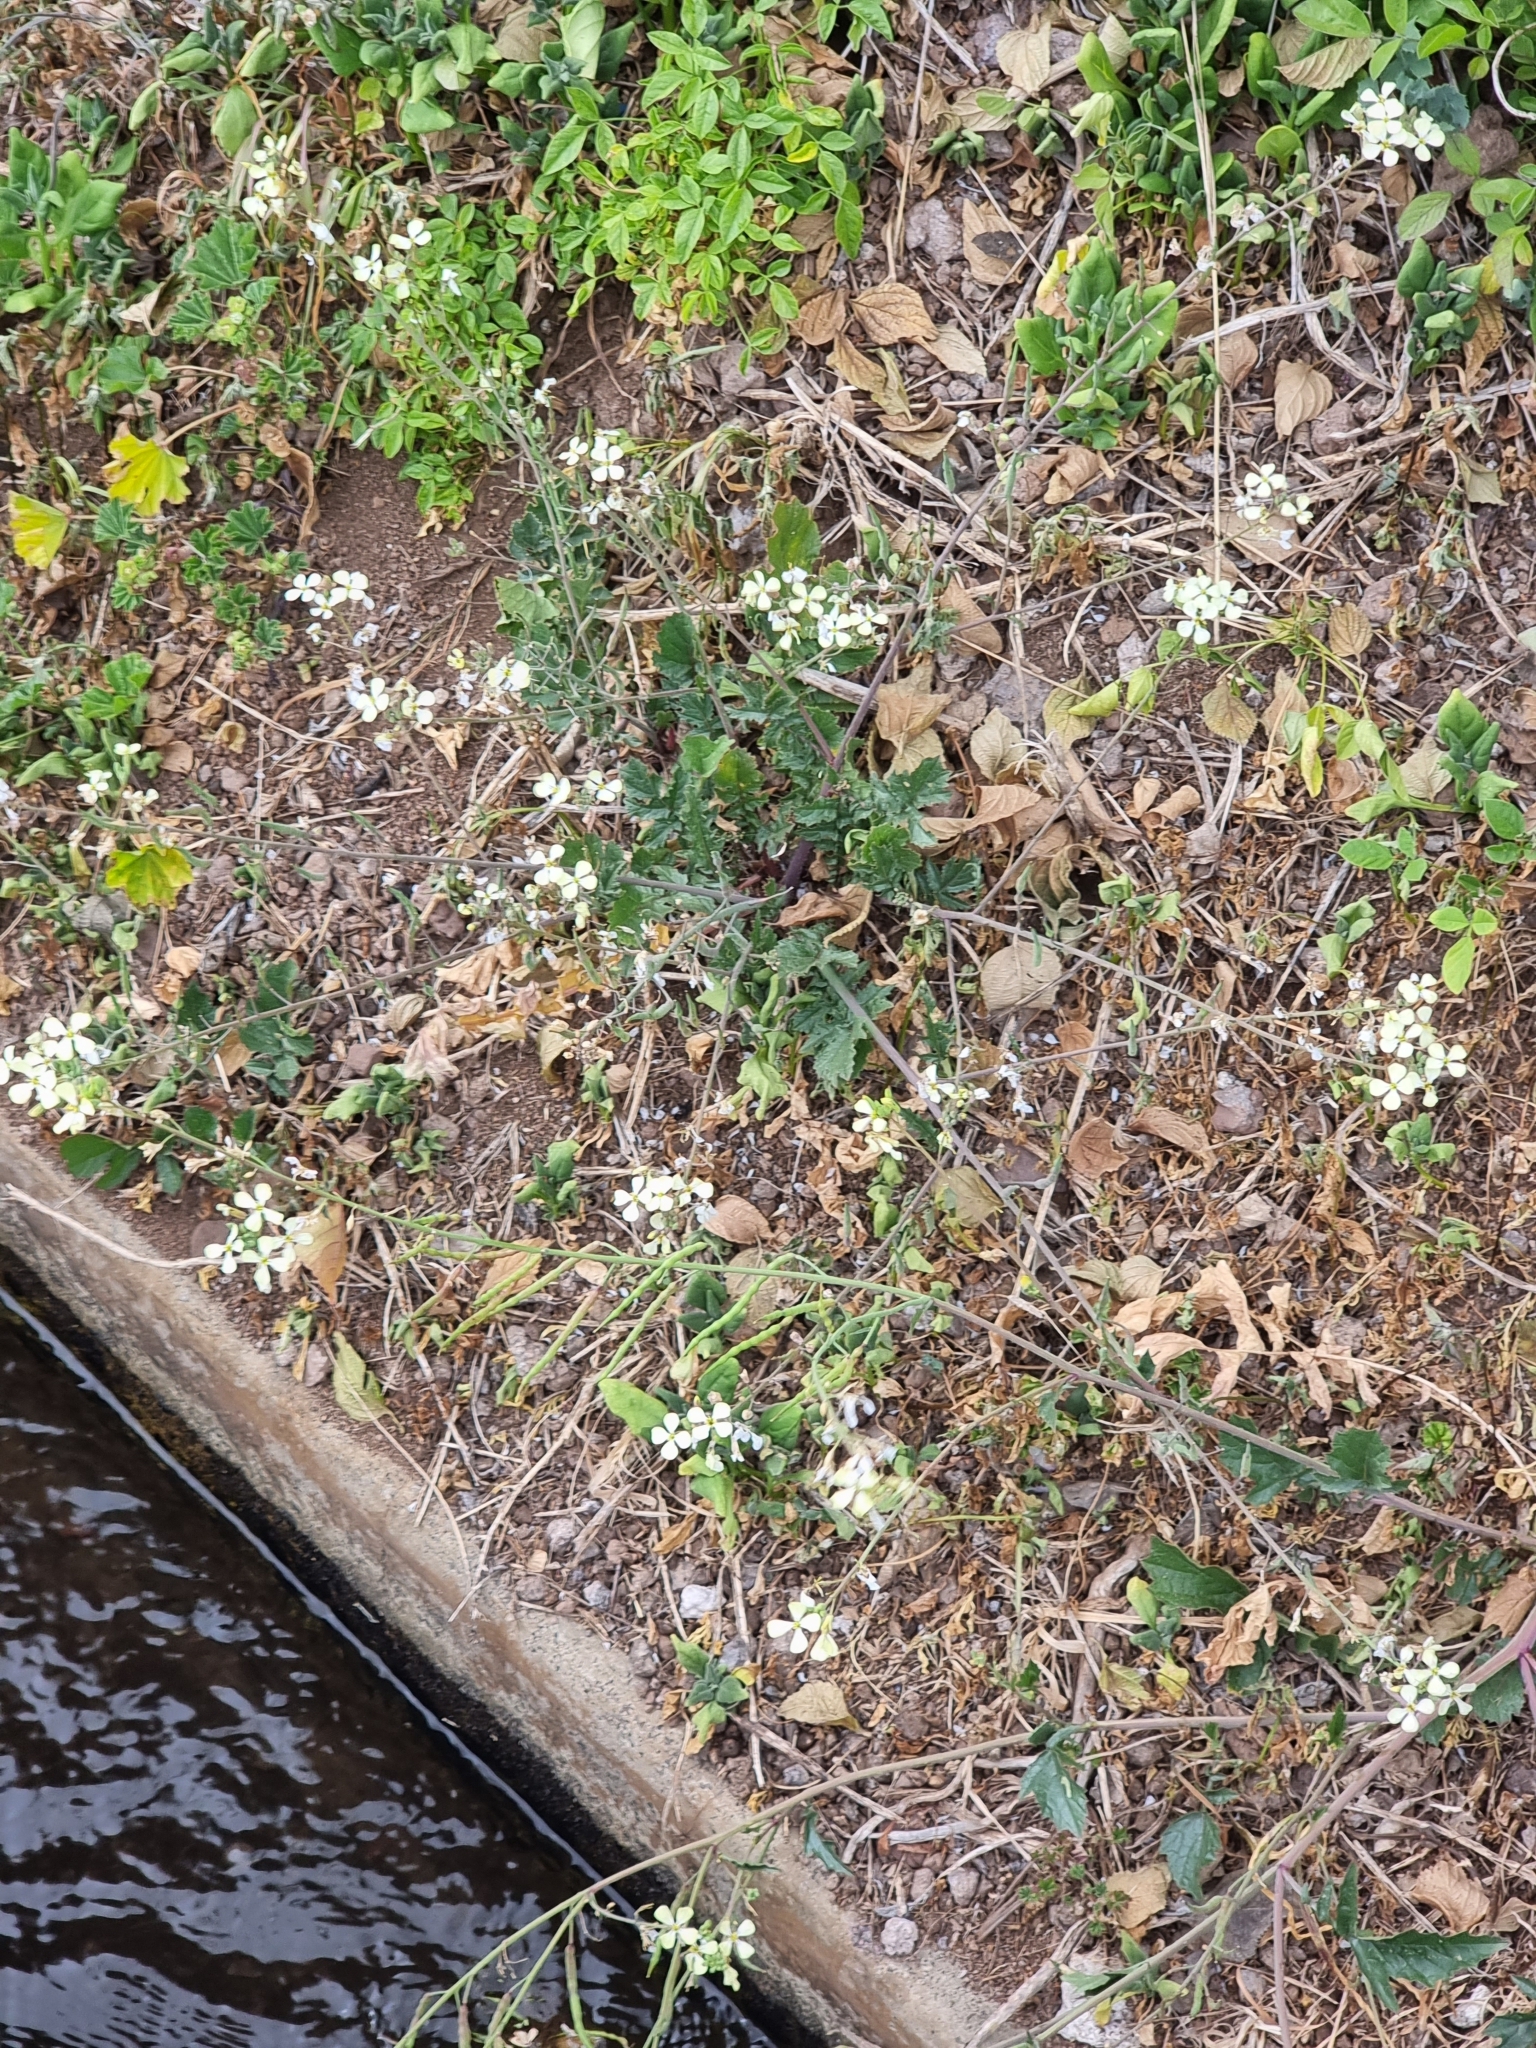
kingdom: Plantae
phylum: Tracheophyta
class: Magnoliopsida
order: Brassicales
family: Brassicaceae
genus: Raphanus
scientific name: Raphanus raphanistrum
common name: Wild radish
